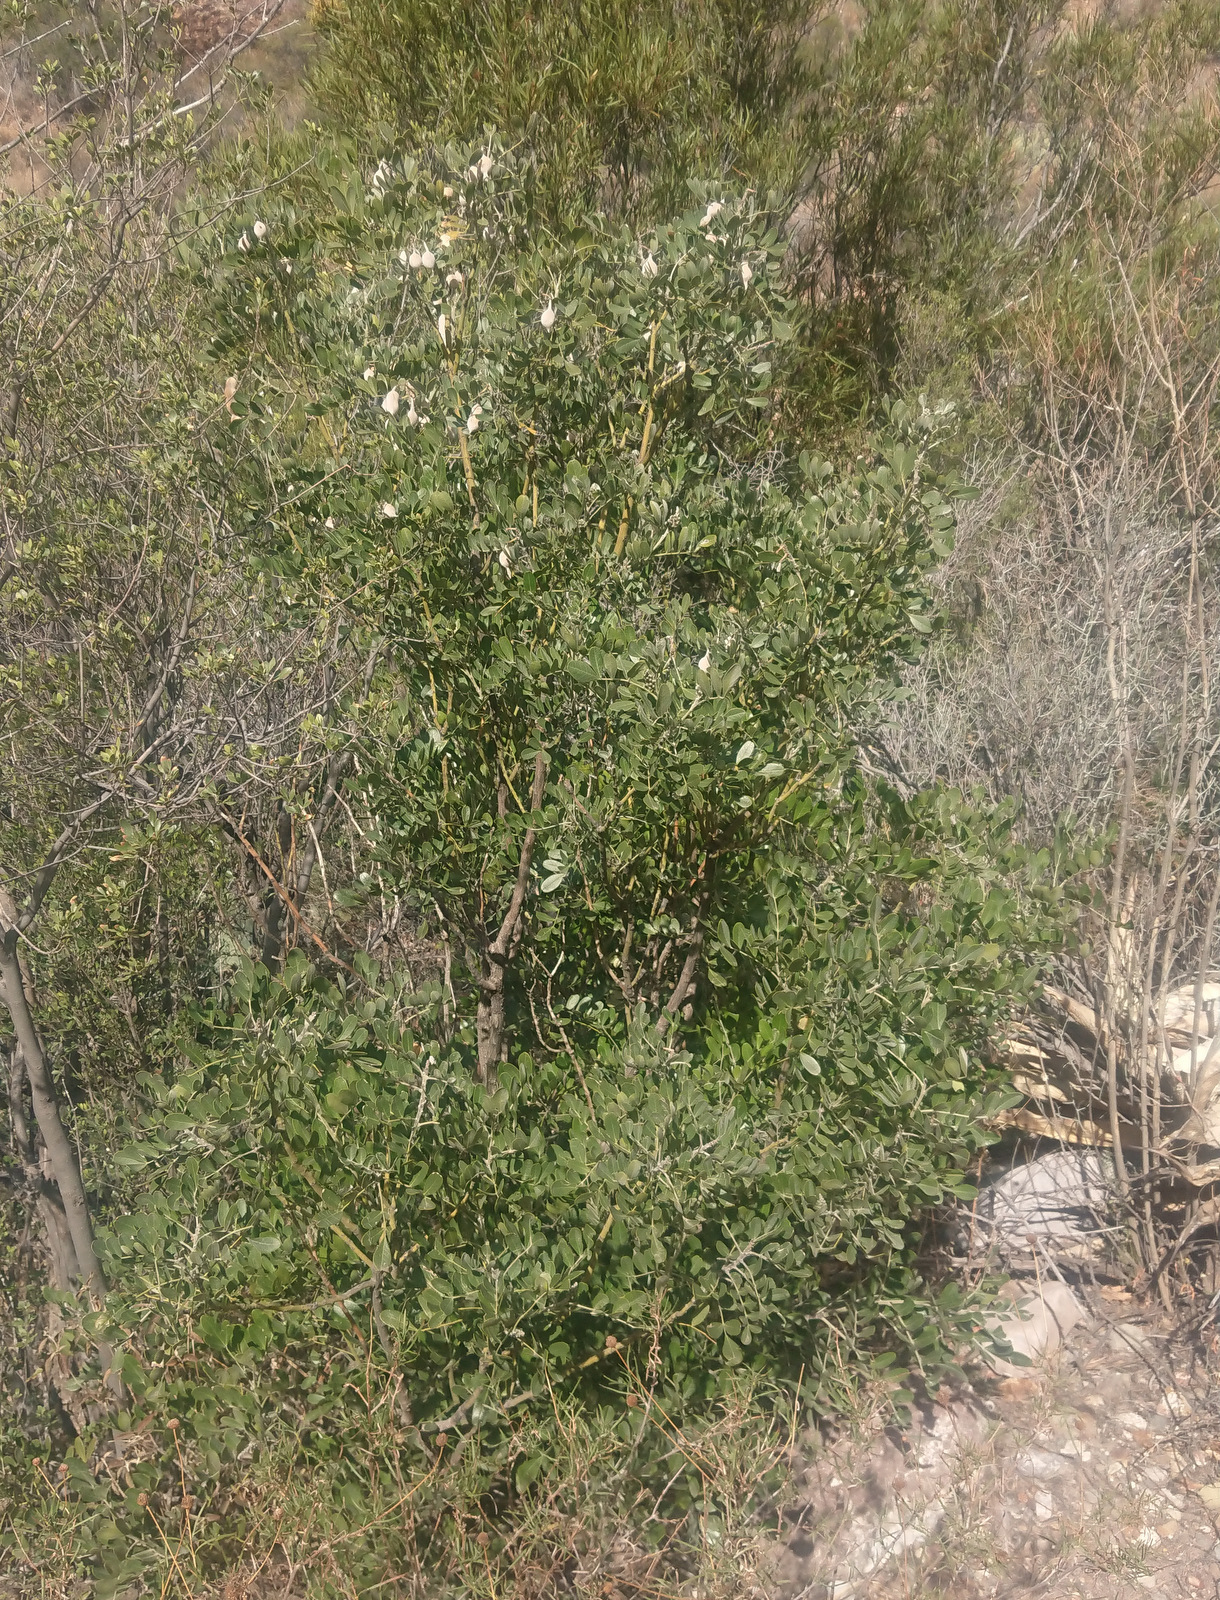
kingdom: Plantae
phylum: Tracheophyta
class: Magnoliopsida
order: Fabales
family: Fabaceae
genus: Dermatophyllum
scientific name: Dermatophyllum secundiflorum
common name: Texas-mountain-laurel
